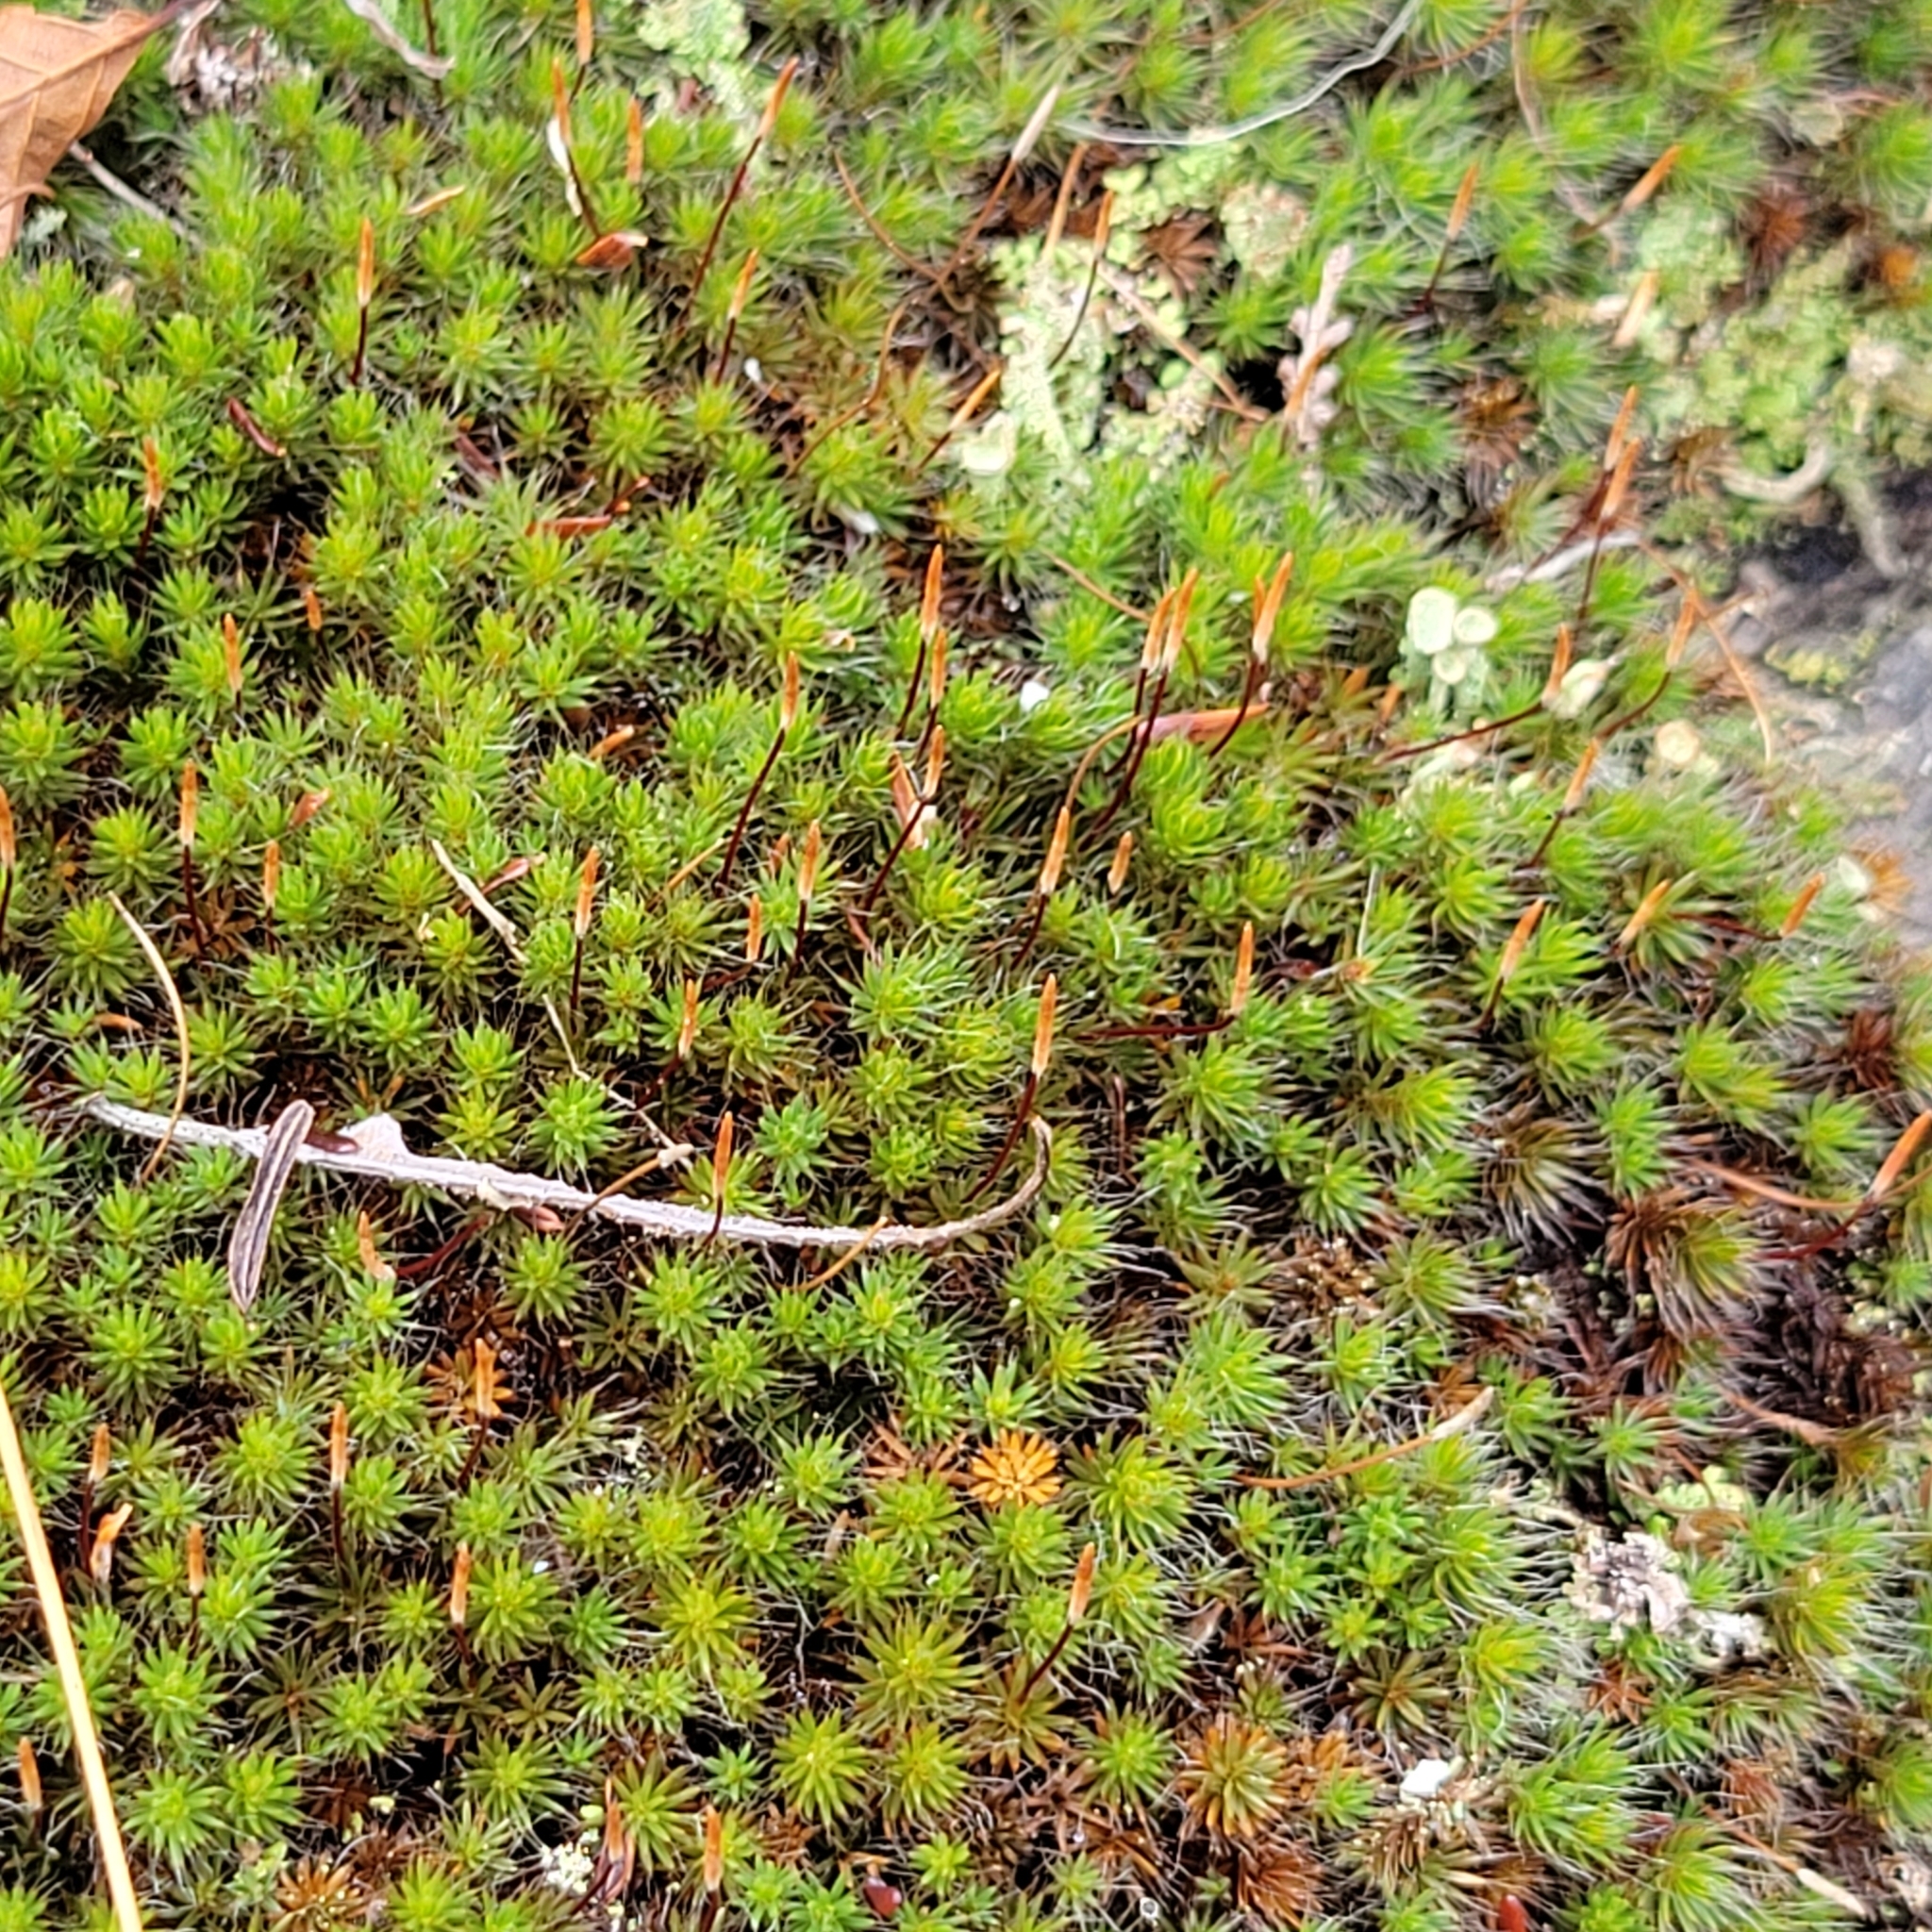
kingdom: Plantae
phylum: Bryophyta
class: Polytrichopsida
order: Polytrichales
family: Polytrichaceae
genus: Polytrichum
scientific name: Polytrichum piliferum
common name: Bristly haircap
